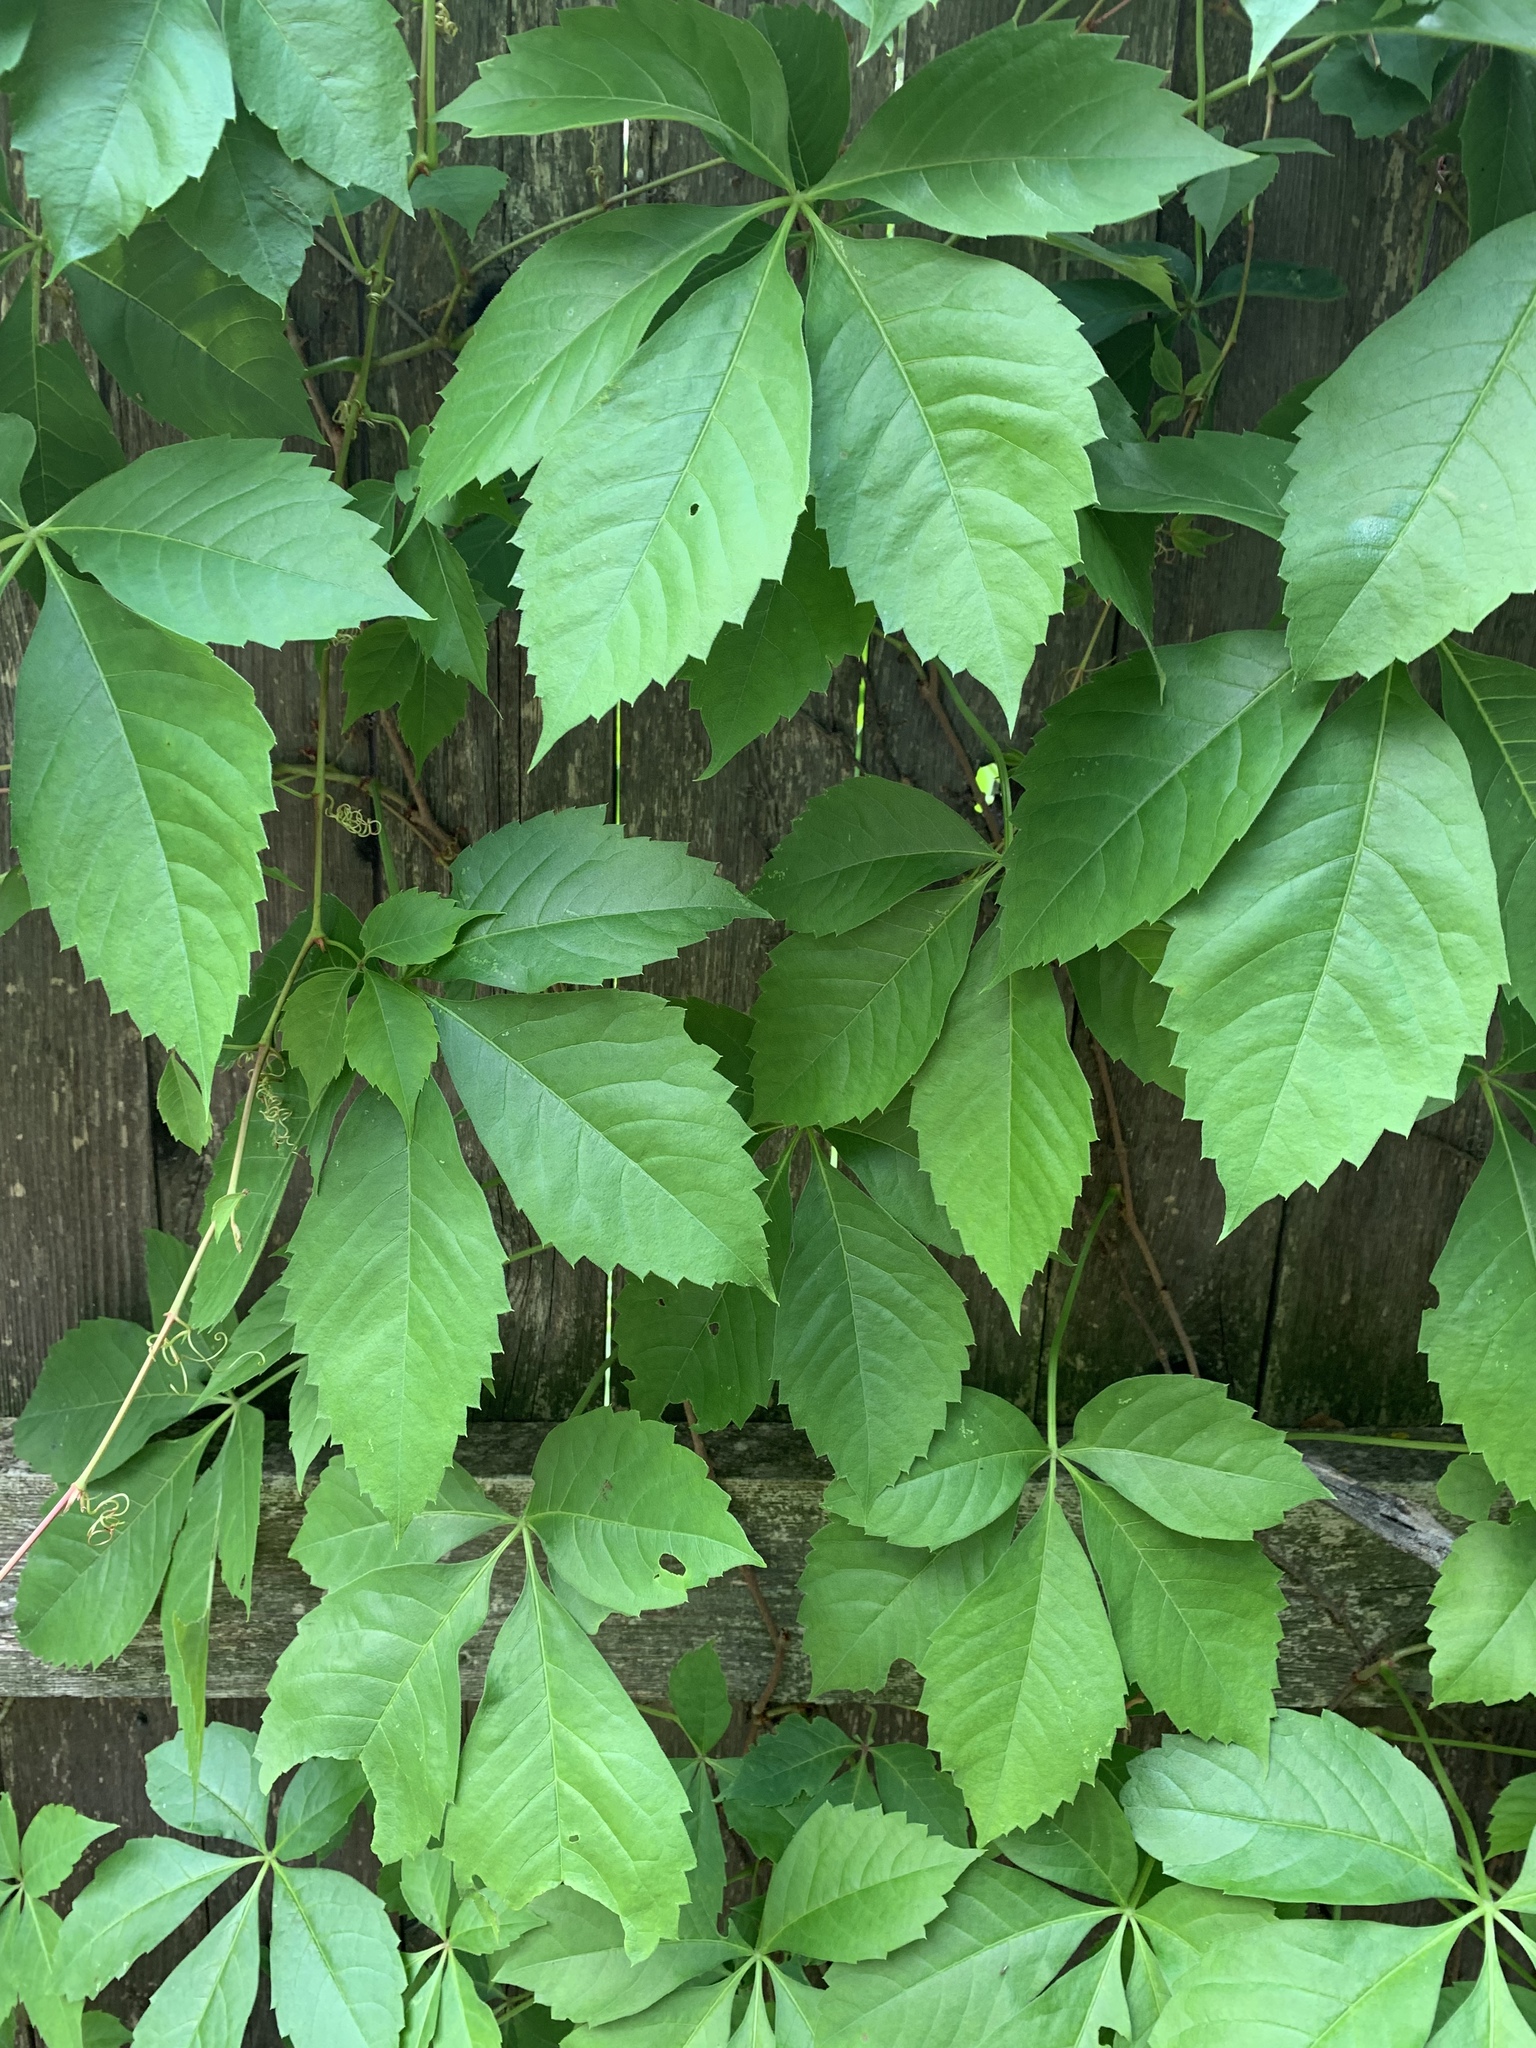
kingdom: Plantae
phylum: Tracheophyta
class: Magnoliopsida
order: Vitales
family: Vitaceae
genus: Parthenocissus
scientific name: Parthenocissus quinquefolia
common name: Virginia-creeper
